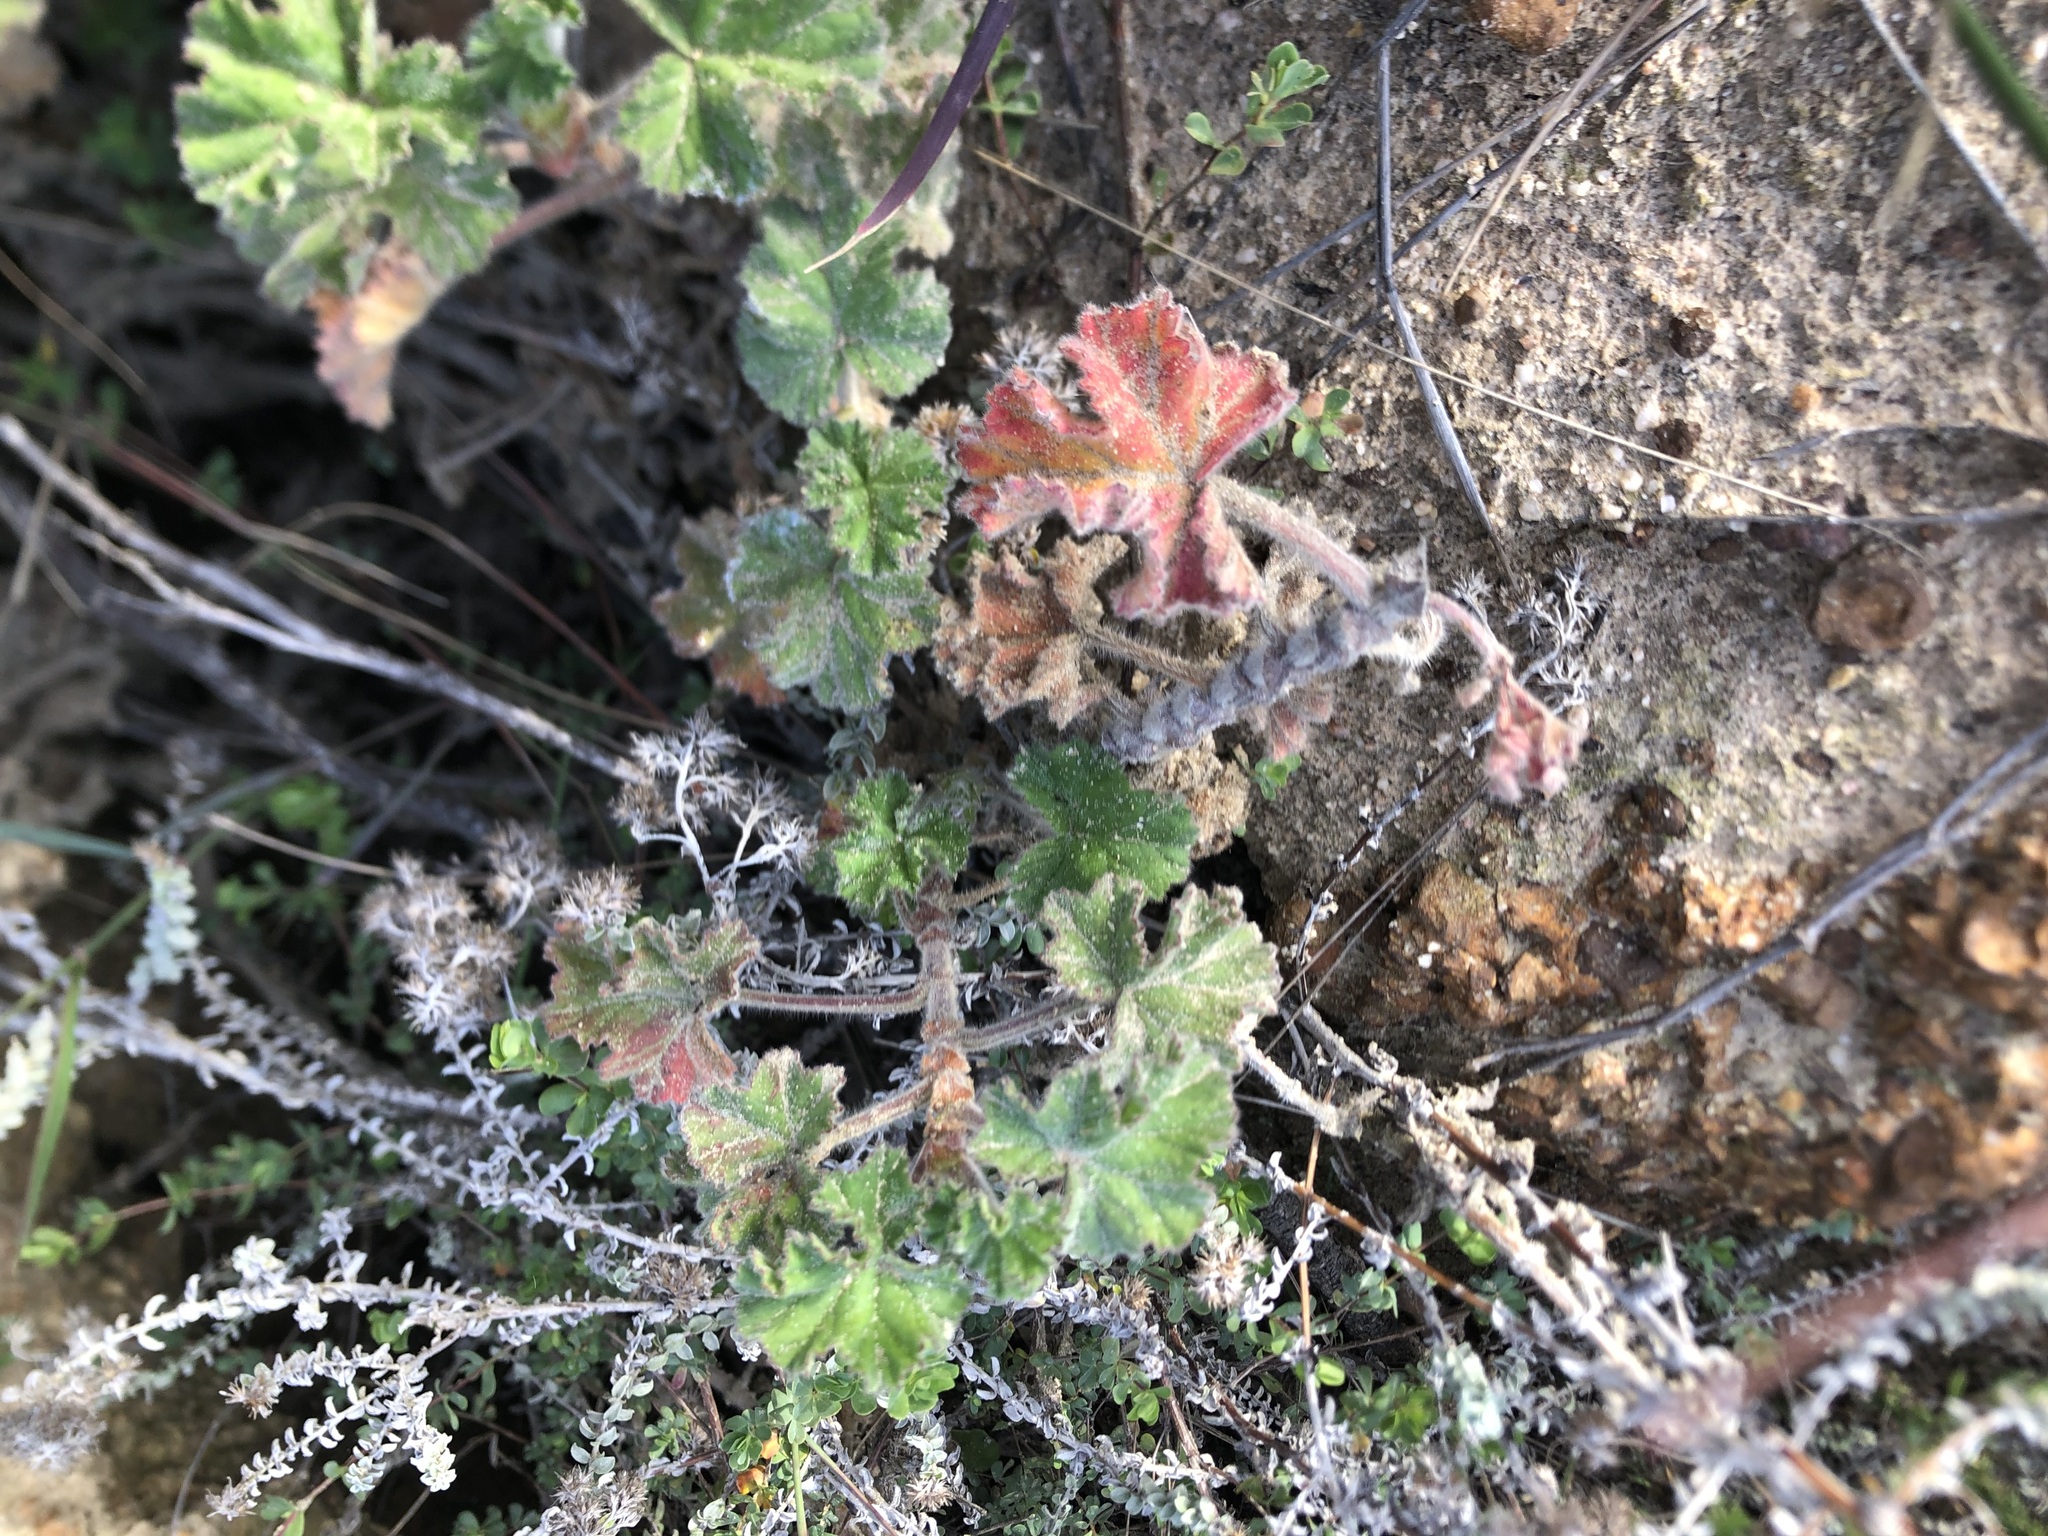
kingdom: Plantae
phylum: Tracheophyta
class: Magnoliopsida
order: Geraniales
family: Geraniaceae
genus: Pelargonium
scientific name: Pelargonium capitatum
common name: Rose scented geranium
